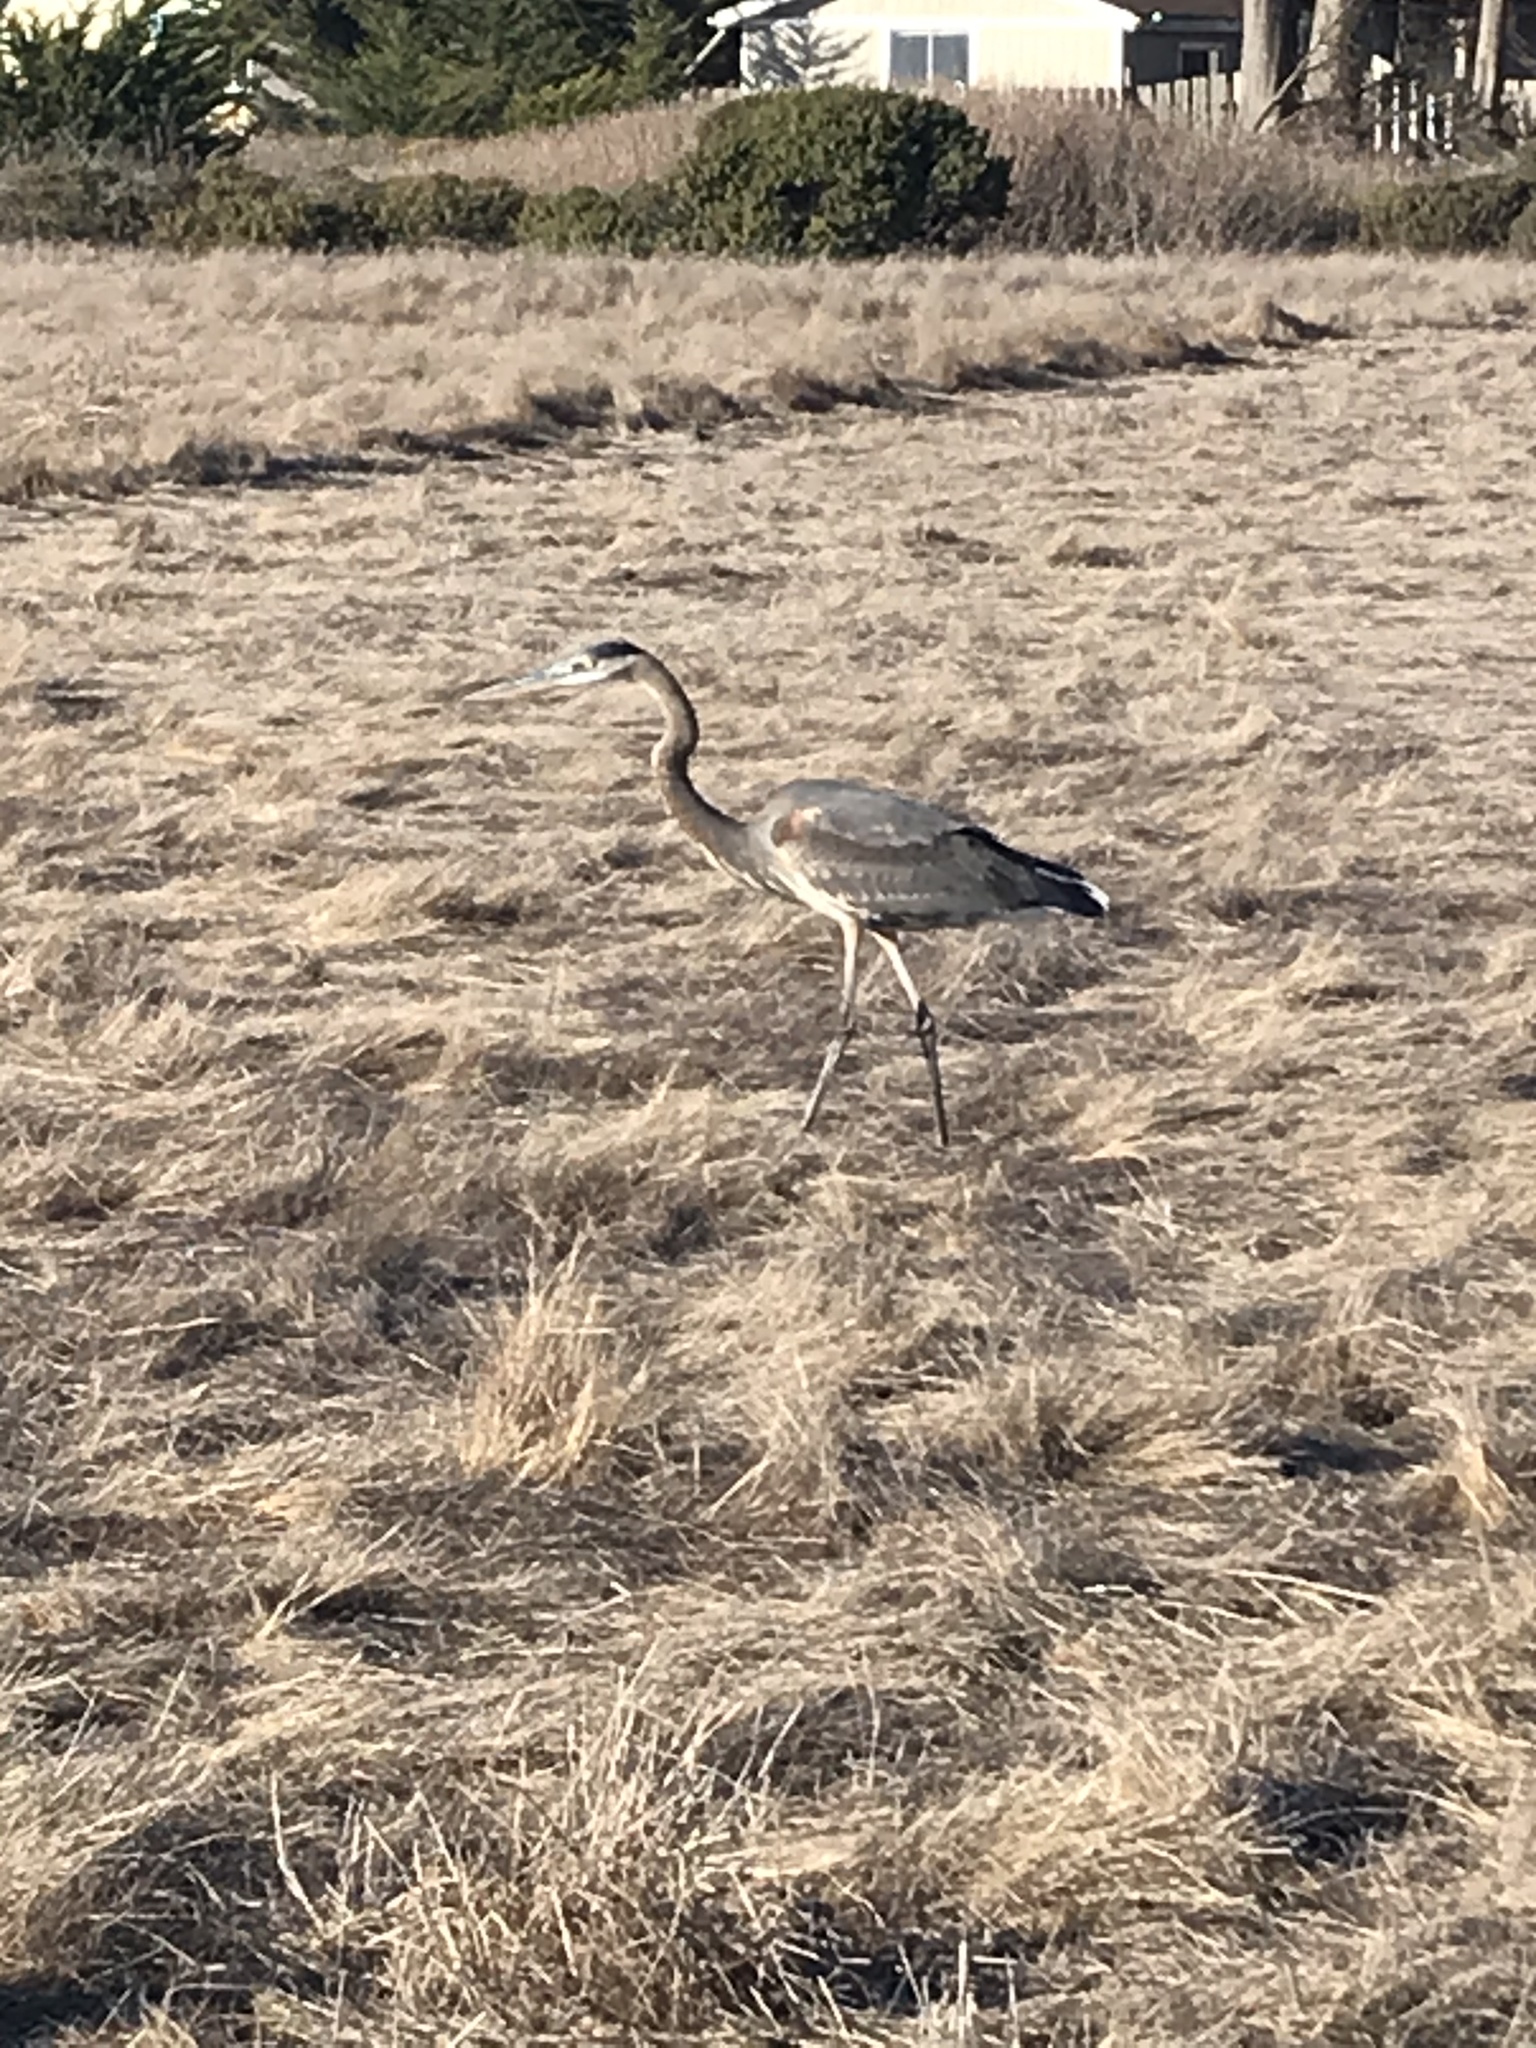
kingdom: Animalia
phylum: Chordata
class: Aves
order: Pelecaniformes
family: Ardeidae
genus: Ardea
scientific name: Ardea herodias
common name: Great blue heron
